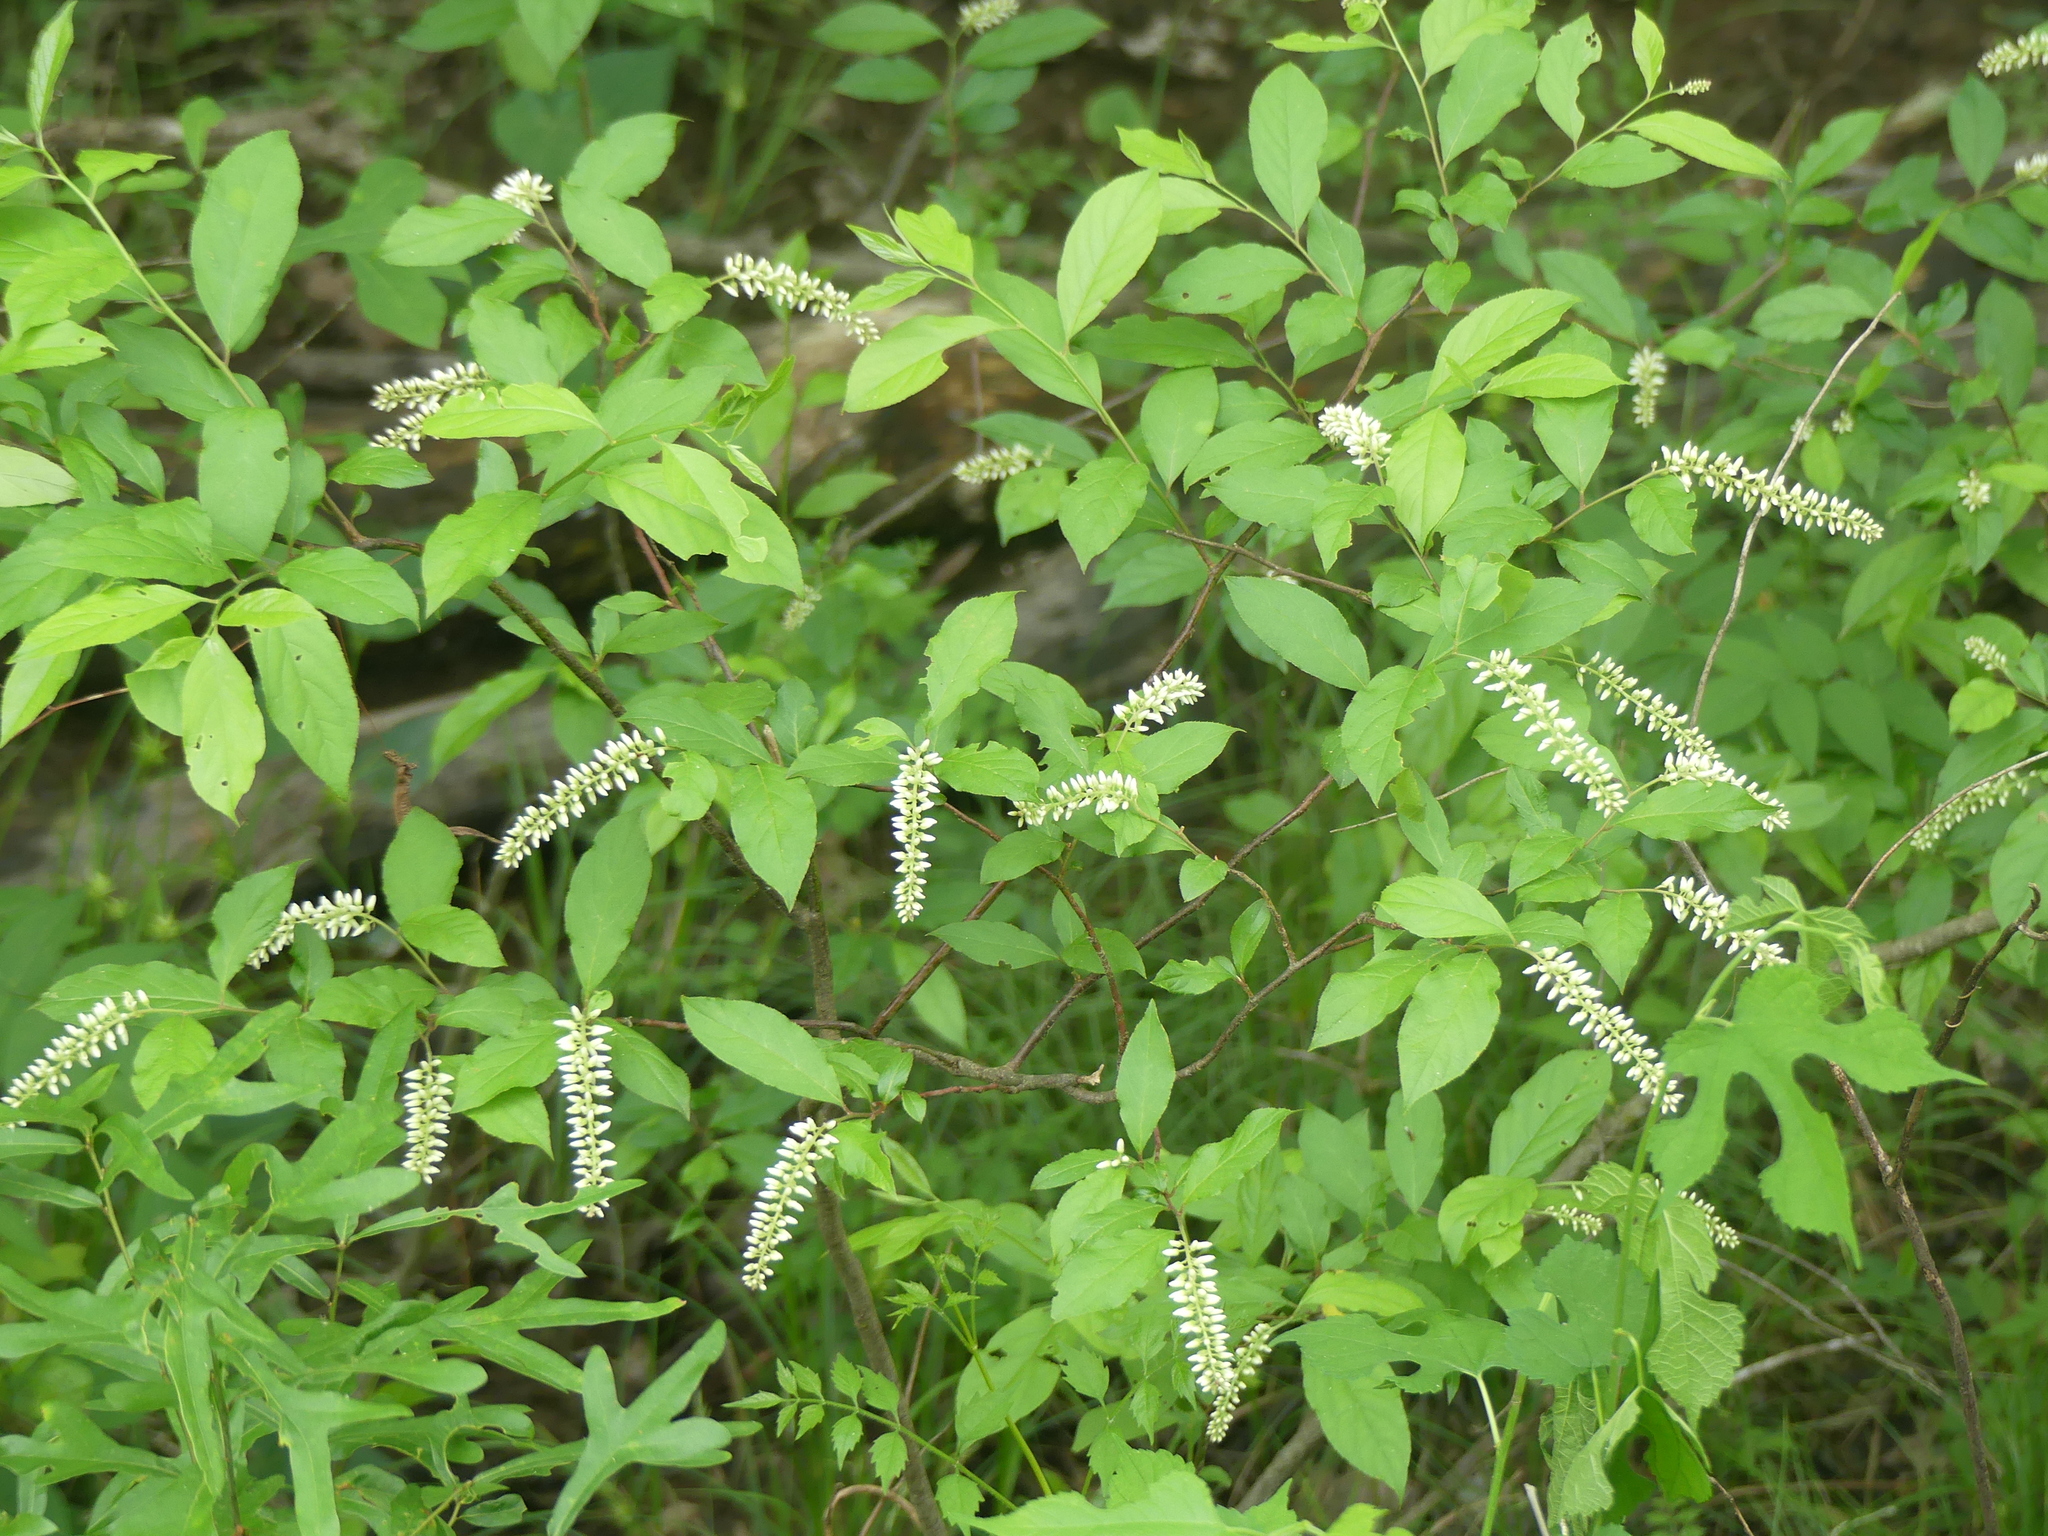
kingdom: Plantae
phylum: Tracheophyta
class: Magnoliopsida
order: Saxifragales
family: Iteaceae
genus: Itea
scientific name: Itea virginica
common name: Sweetspire
